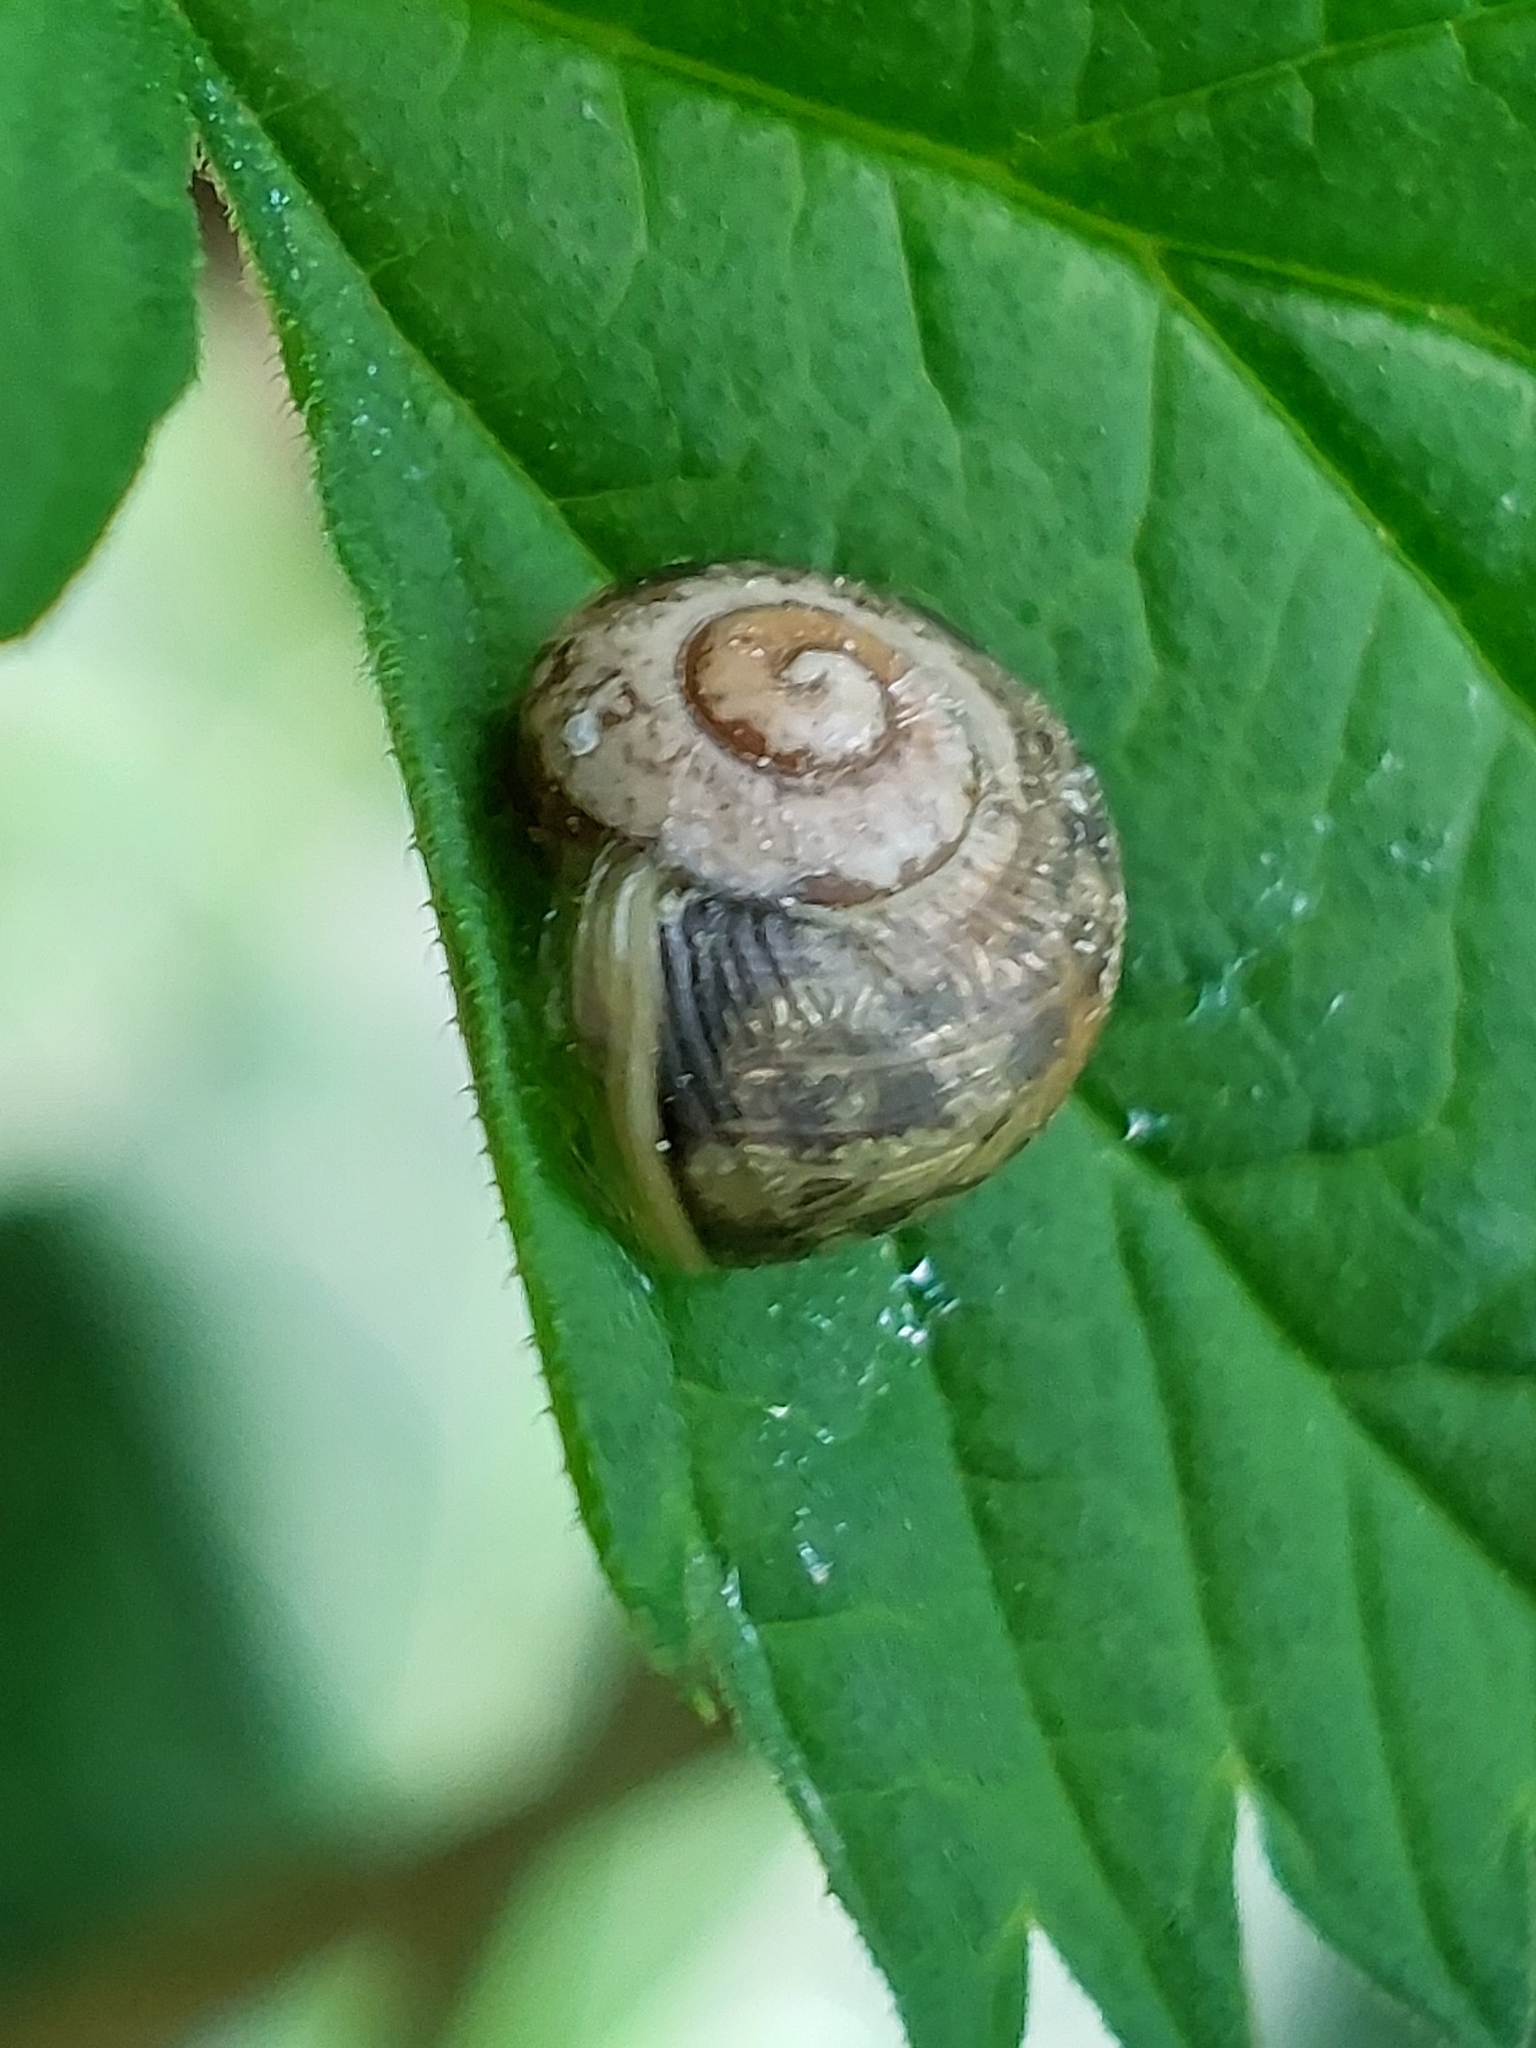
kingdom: Animalia
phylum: Mollusca
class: Gastropoda
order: Stylommatophora
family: Helicidae
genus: Cornu
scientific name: Cornu aspersum
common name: Brown garden snail
